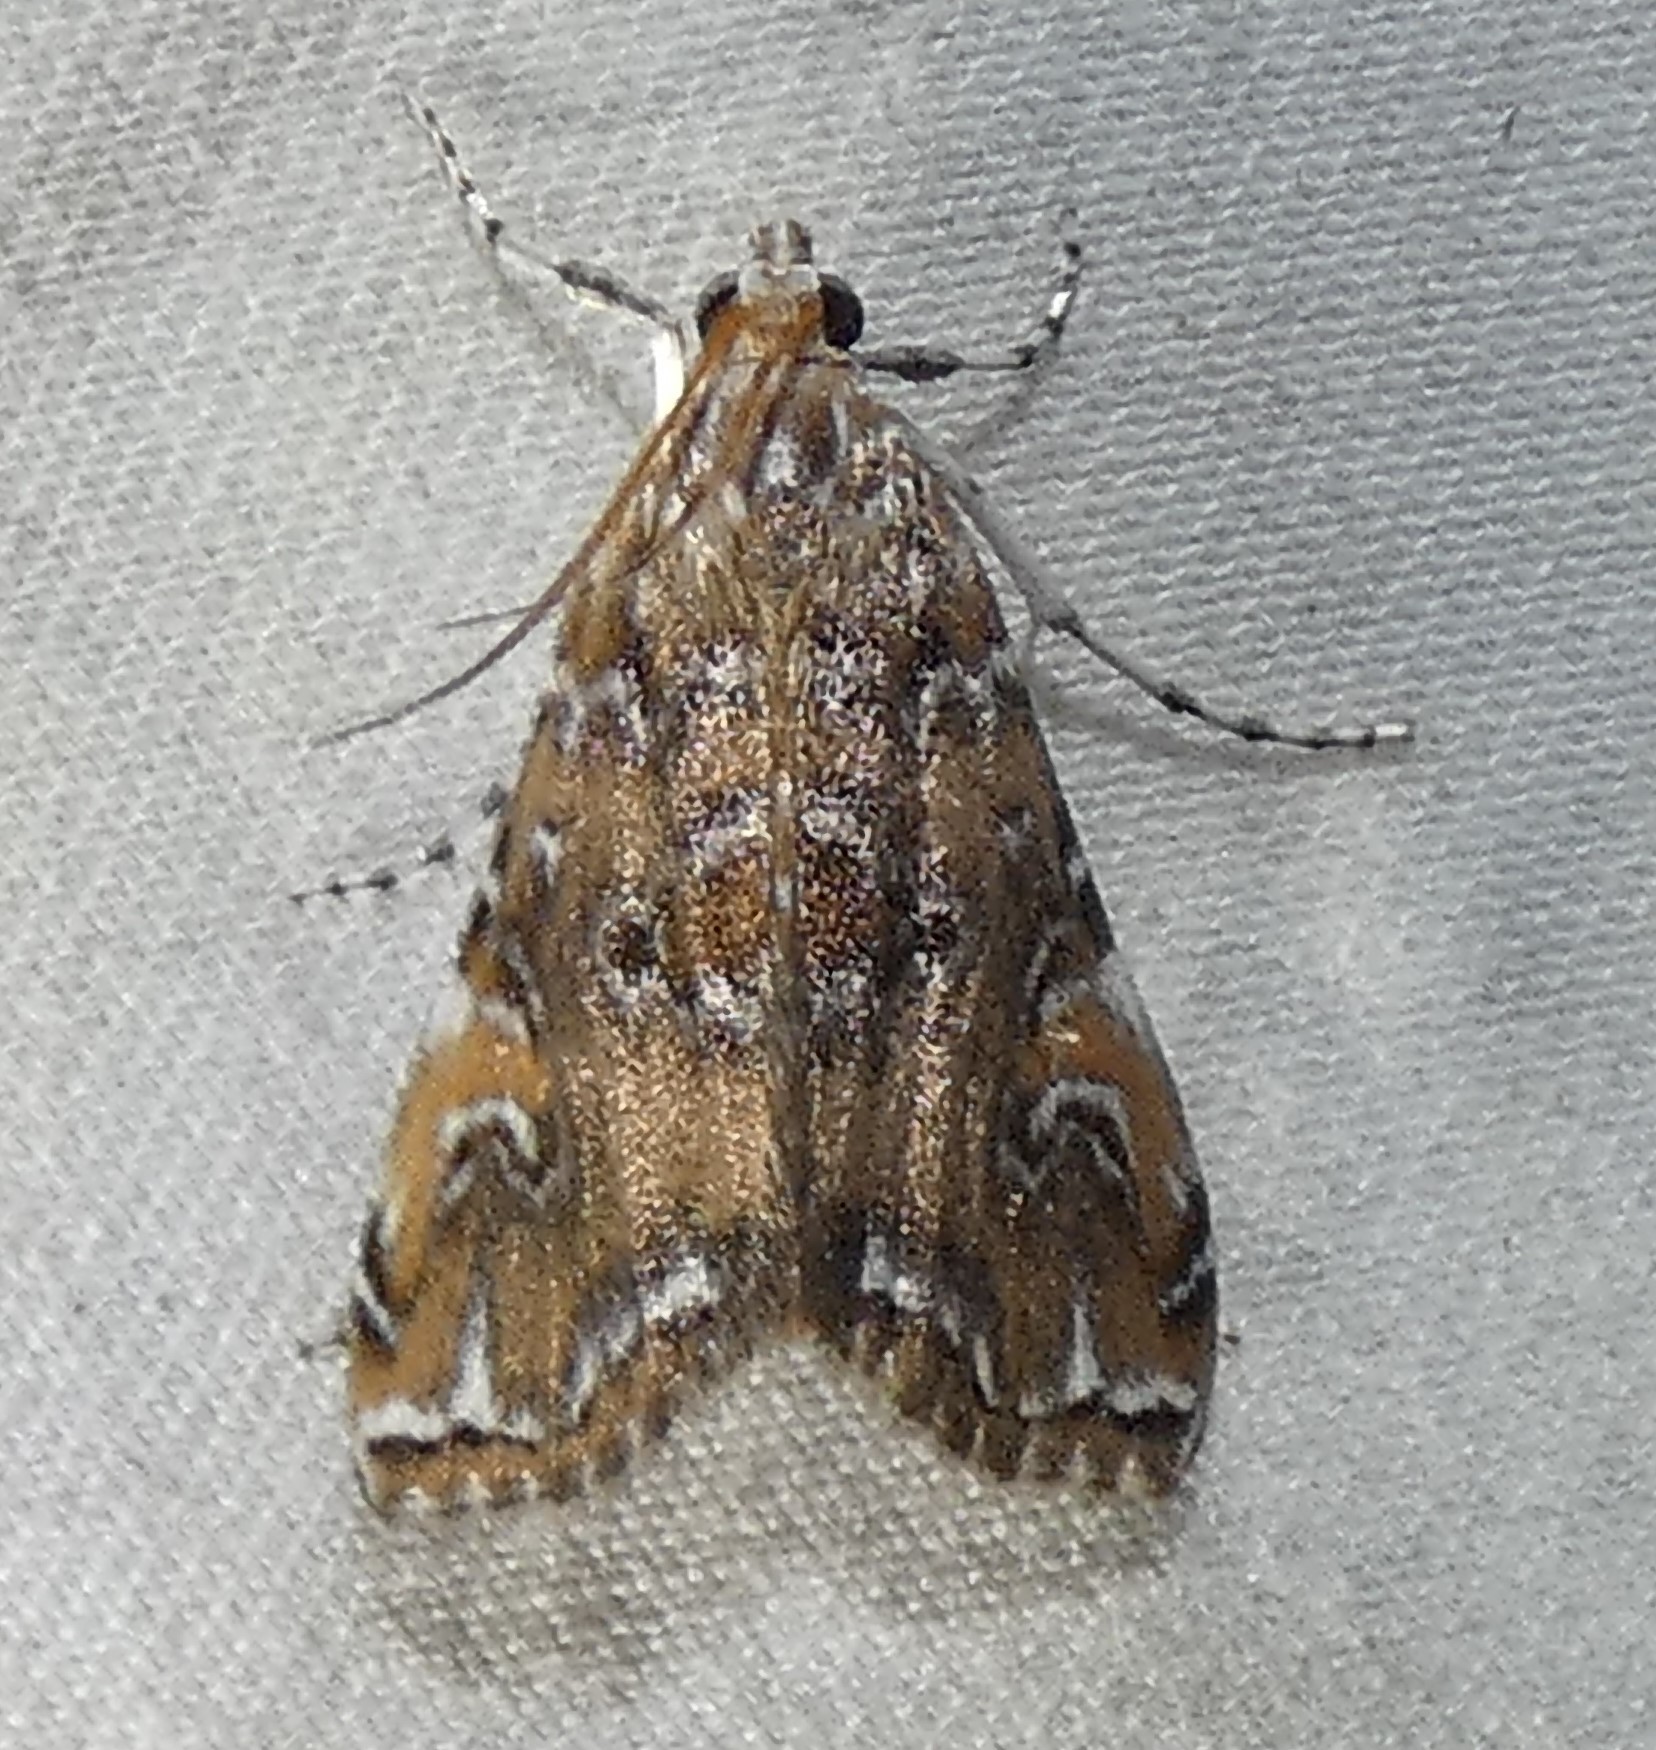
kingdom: Animalia
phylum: Arthropoda
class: Insecta
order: Lepidoptera
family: Crambidae
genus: Elophila
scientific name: Elophila gyralis
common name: Waterlily borer moth
